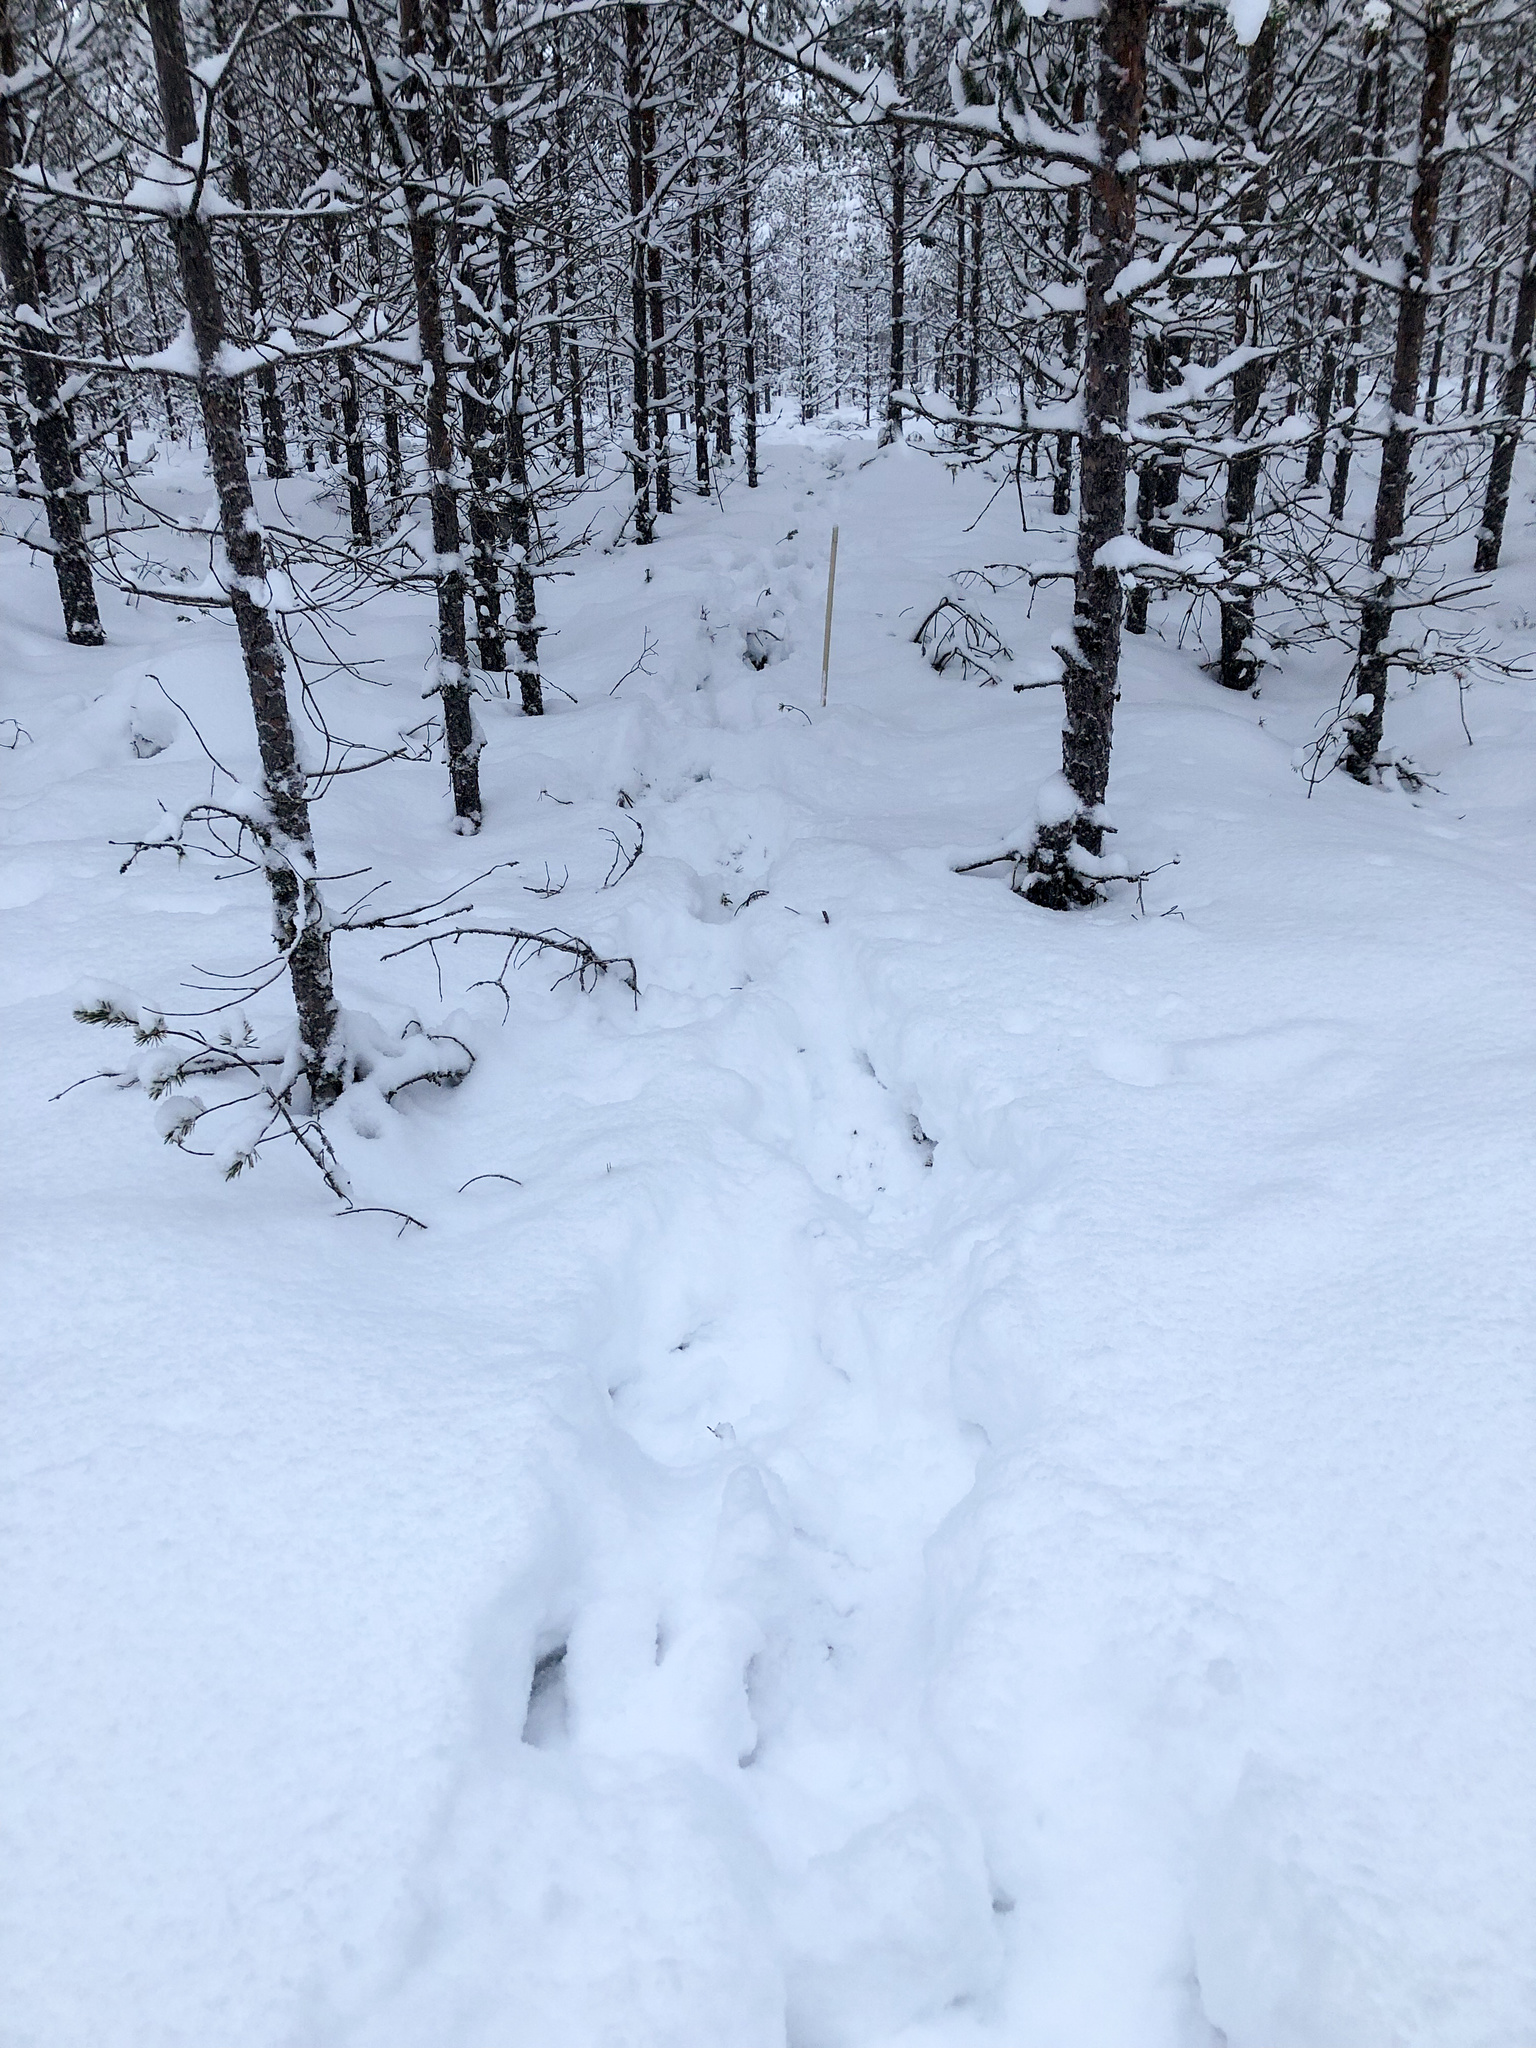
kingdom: Animalia
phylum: Chordata
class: Mammalia
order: Artiodactyla
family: Cervidae
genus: Rangifer
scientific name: Rangifer tarandus
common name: Reindeer
